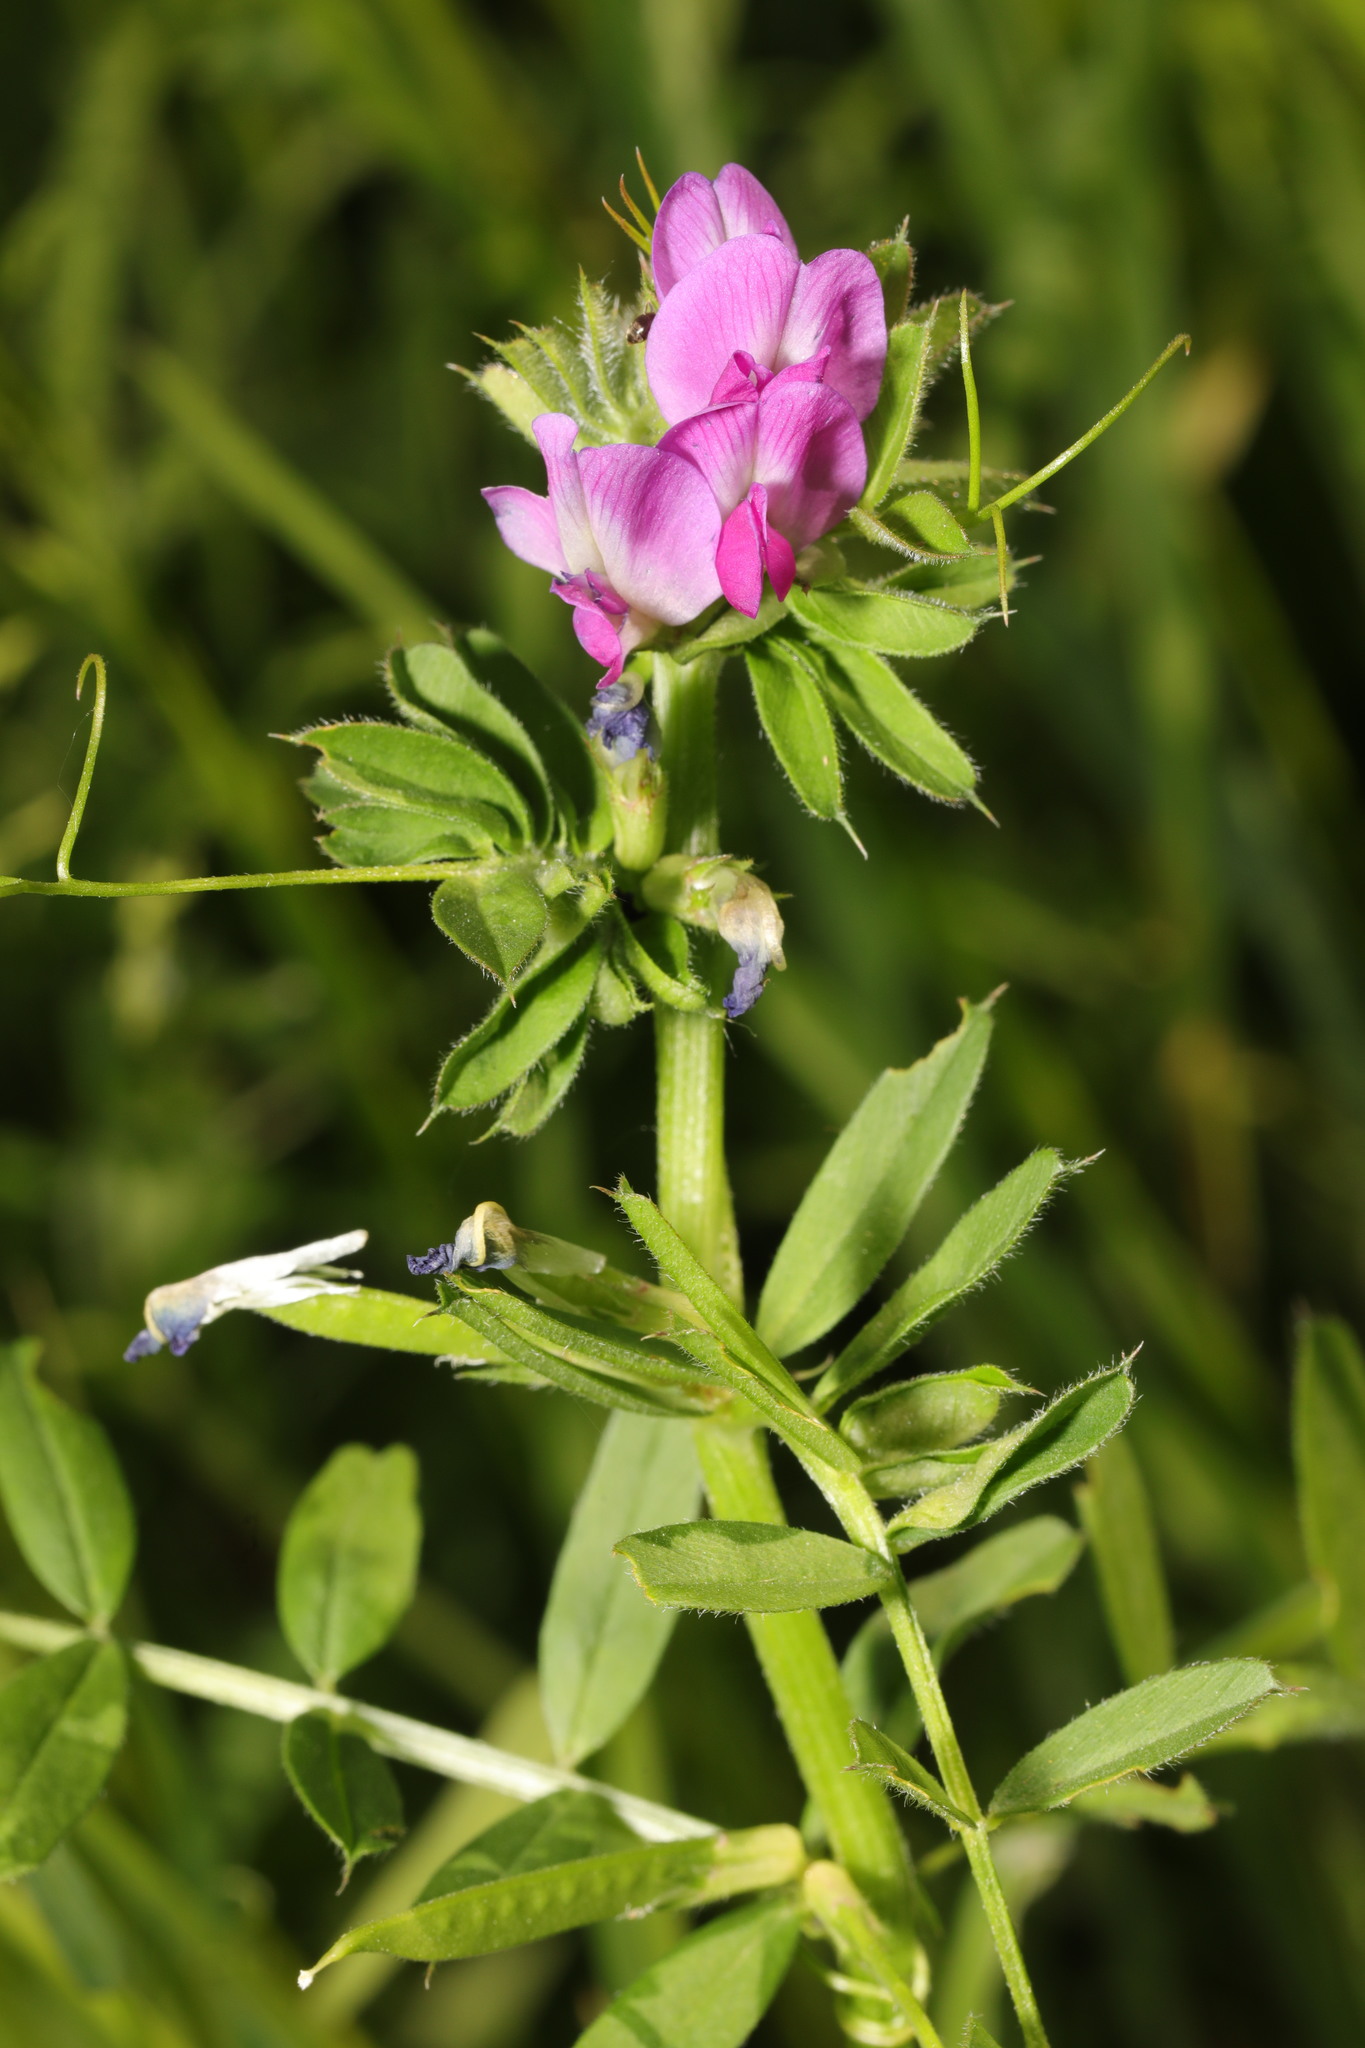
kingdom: Plantae
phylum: Tracheophyta
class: Magnoliopsida
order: Fabales
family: Fabaceae
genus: Vicia
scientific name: Vicia sativa
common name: Garden vetch
